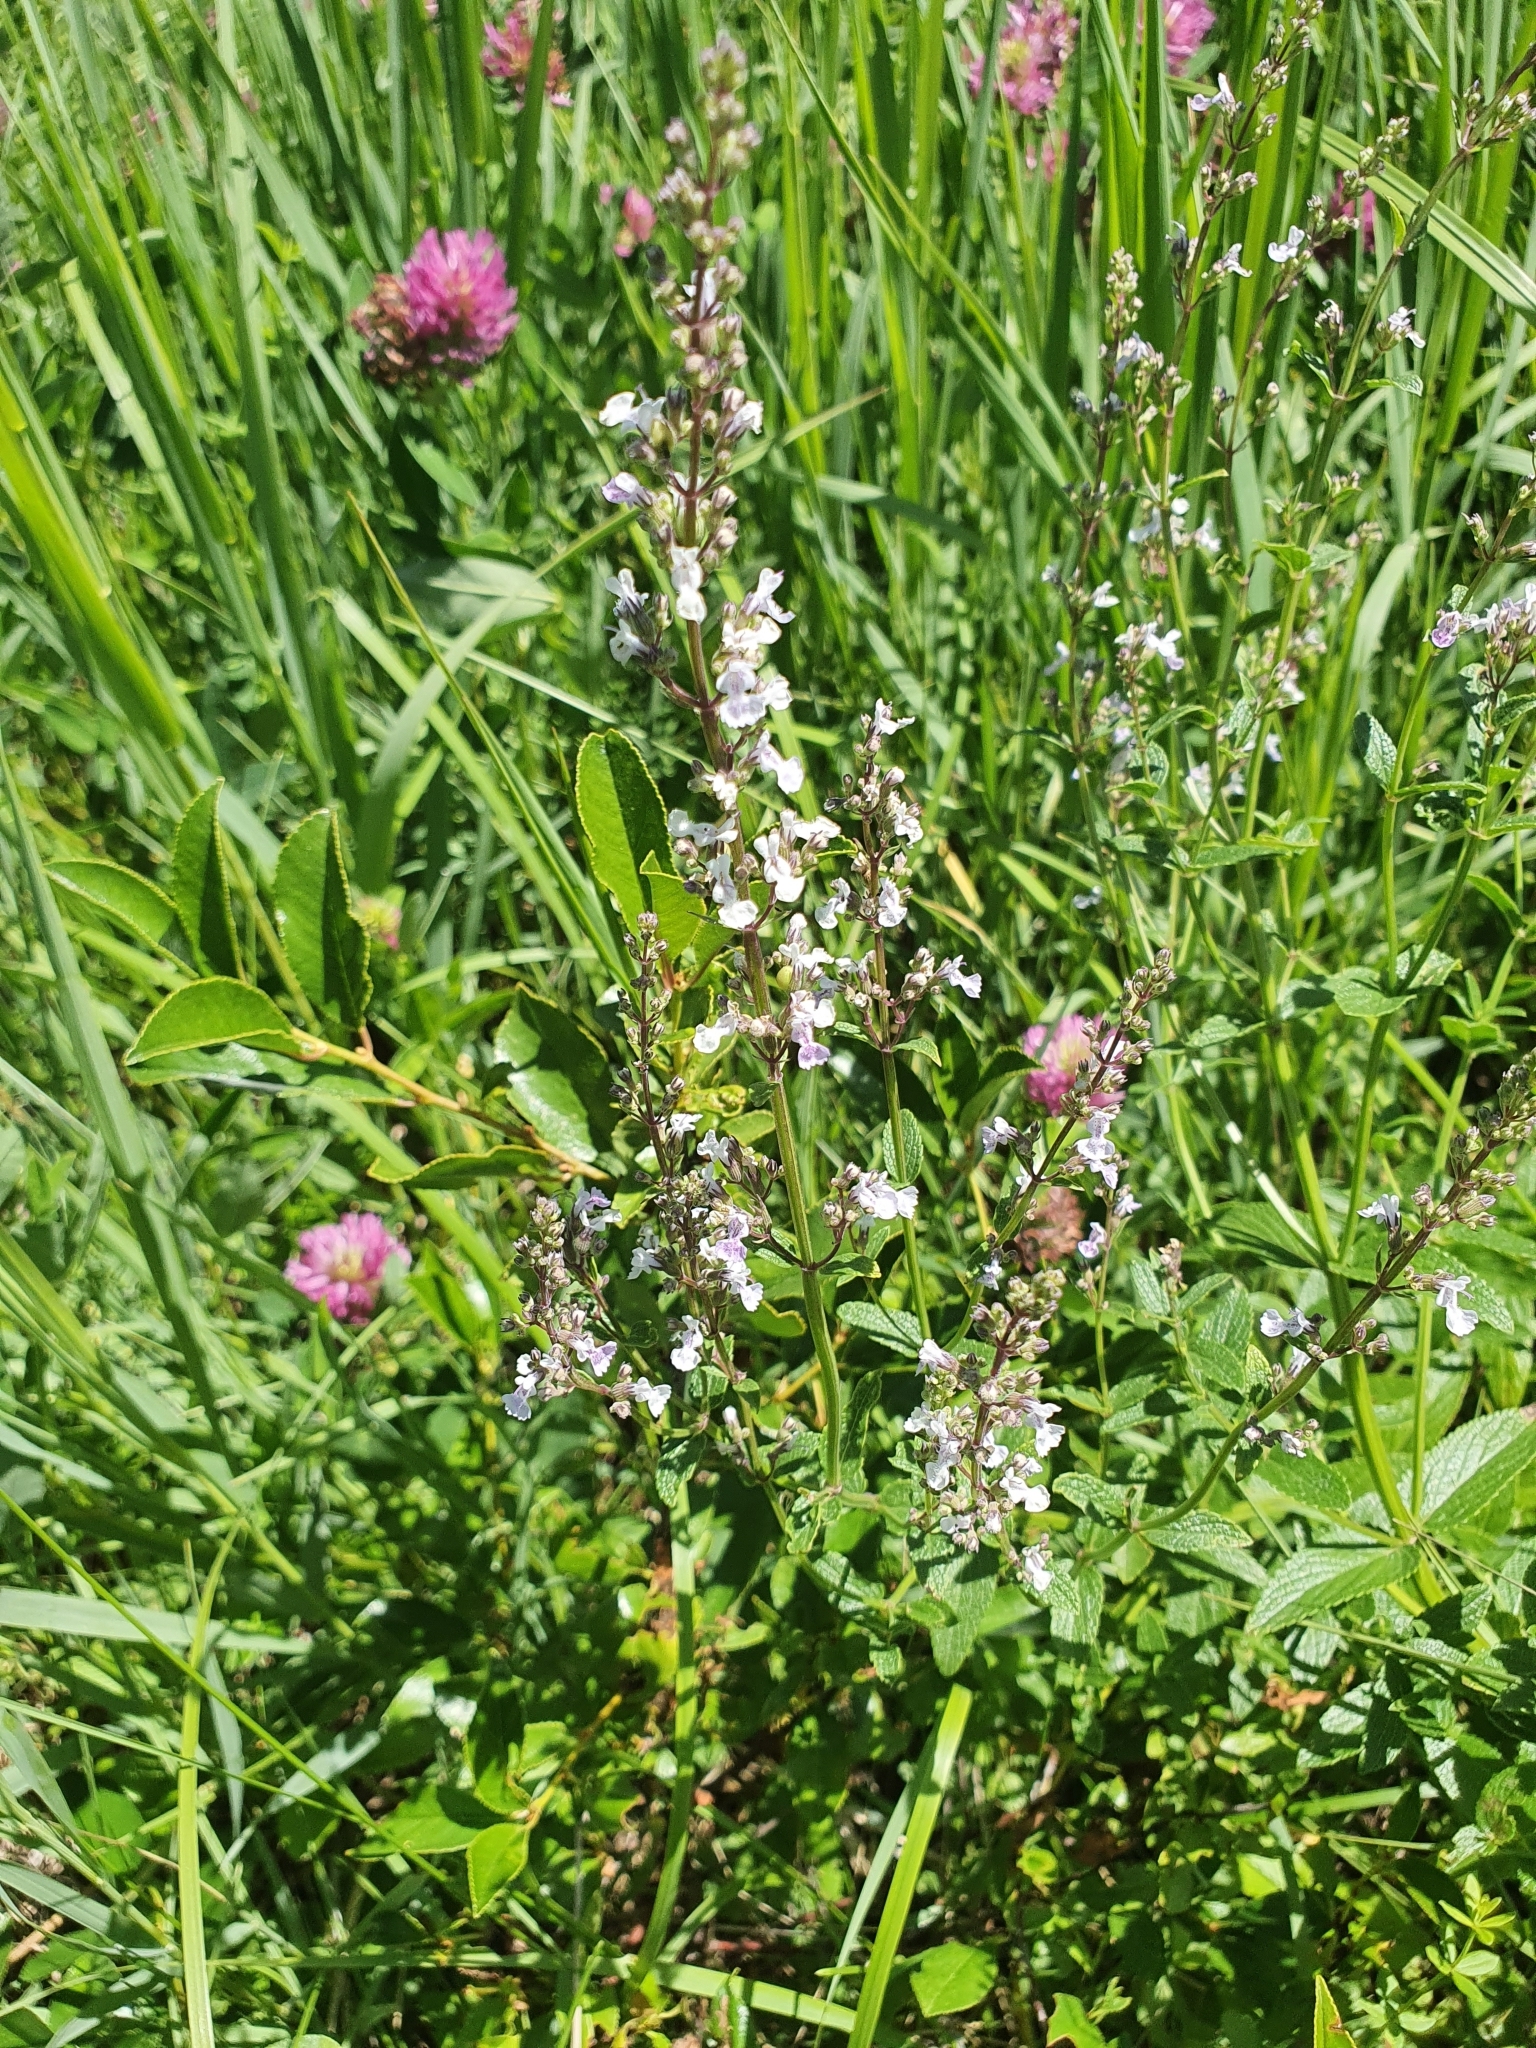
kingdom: Plantae
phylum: Tracheophyta
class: Magnoliopsida
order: Lamiales
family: Lamiaceae
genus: Nepeta
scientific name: Nepeta nuda
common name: Hairless catmint
